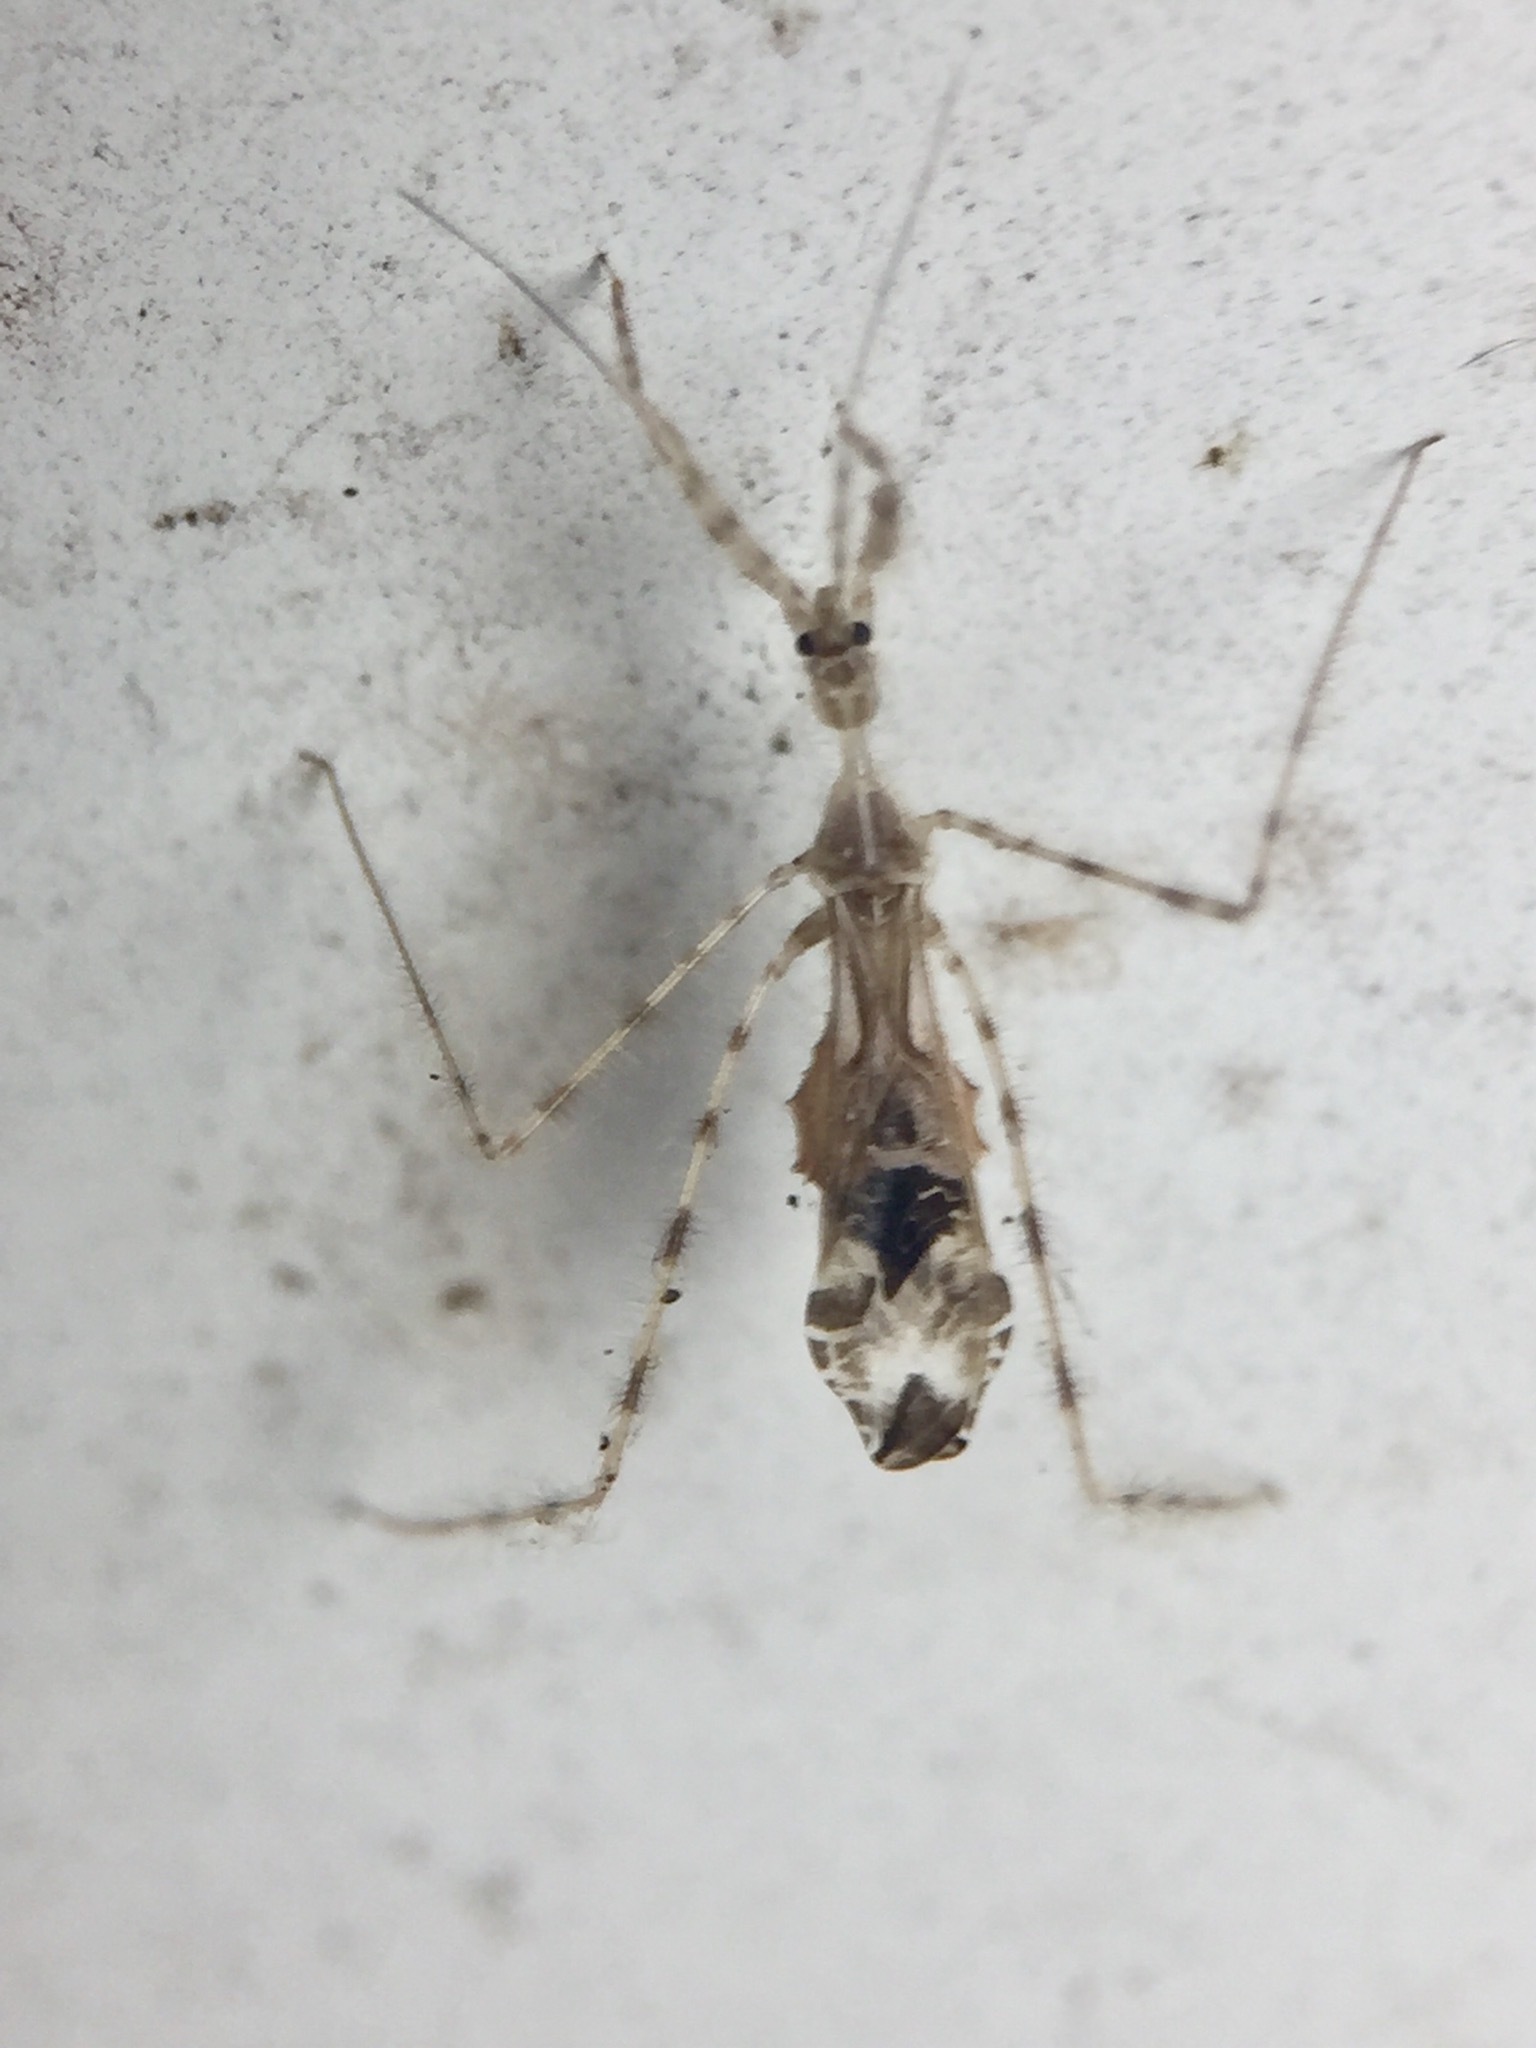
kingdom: Animalia
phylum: Arthropoda
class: Insecta
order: Hemiptera
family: Reduviidae
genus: Stenolemus
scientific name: Stenolemus fraterculus
